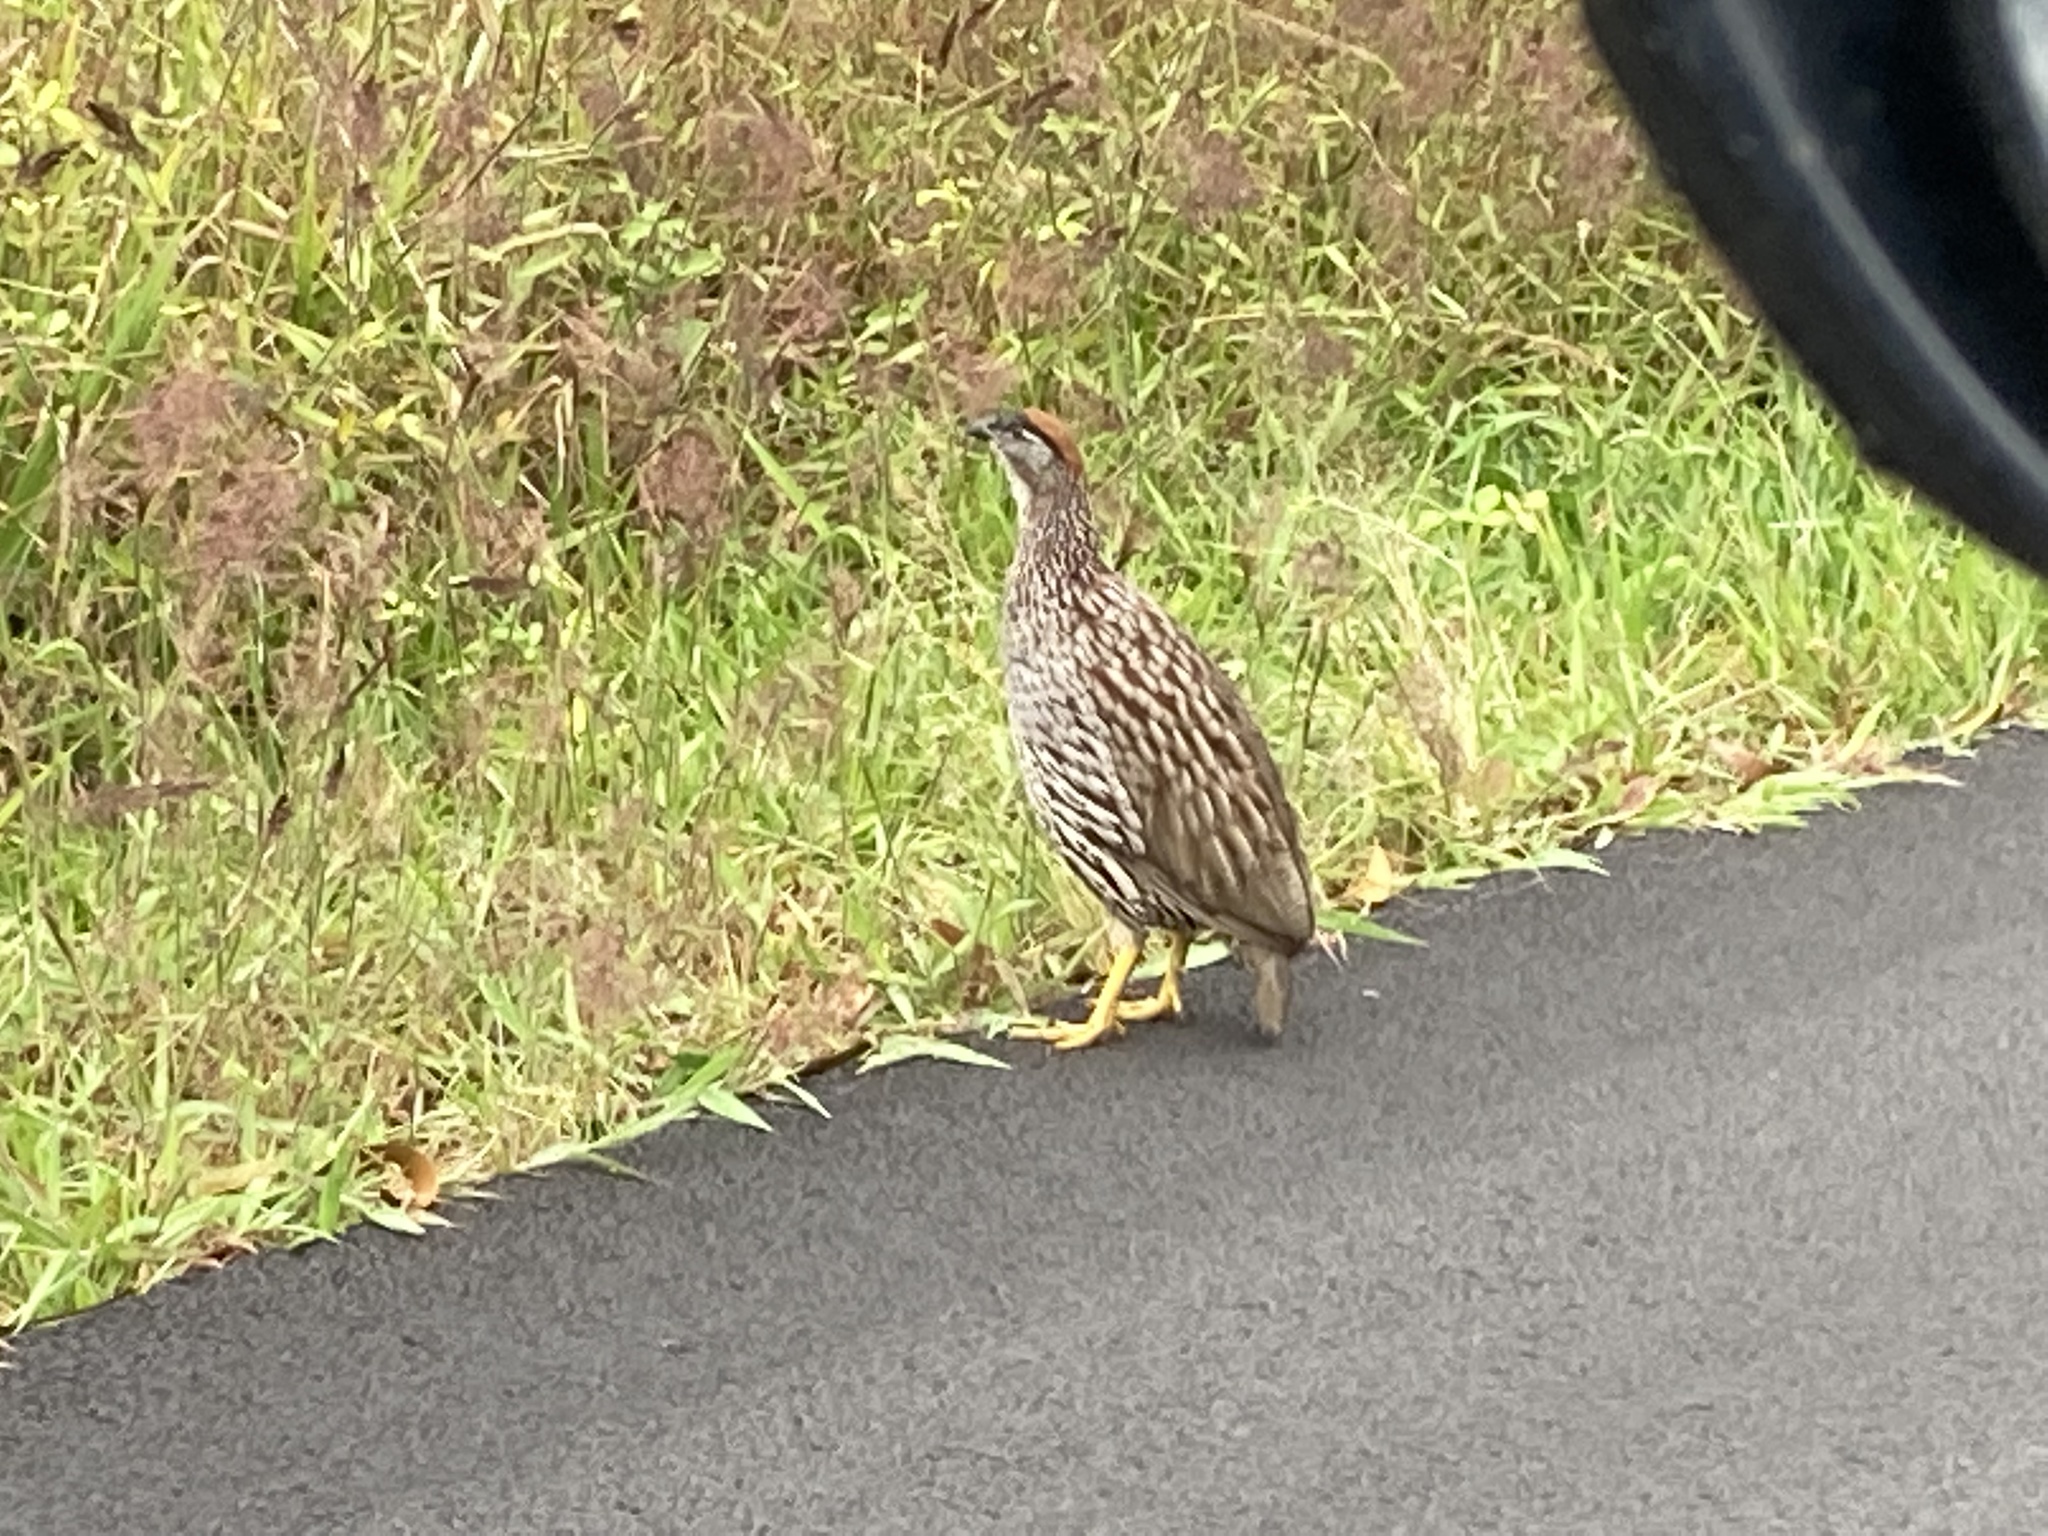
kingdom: Animalia
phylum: Chordata
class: Aves
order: Galliformes
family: Phasianidae
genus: Pternistis
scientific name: Pternistis erckelii
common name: Erckel's francolin
